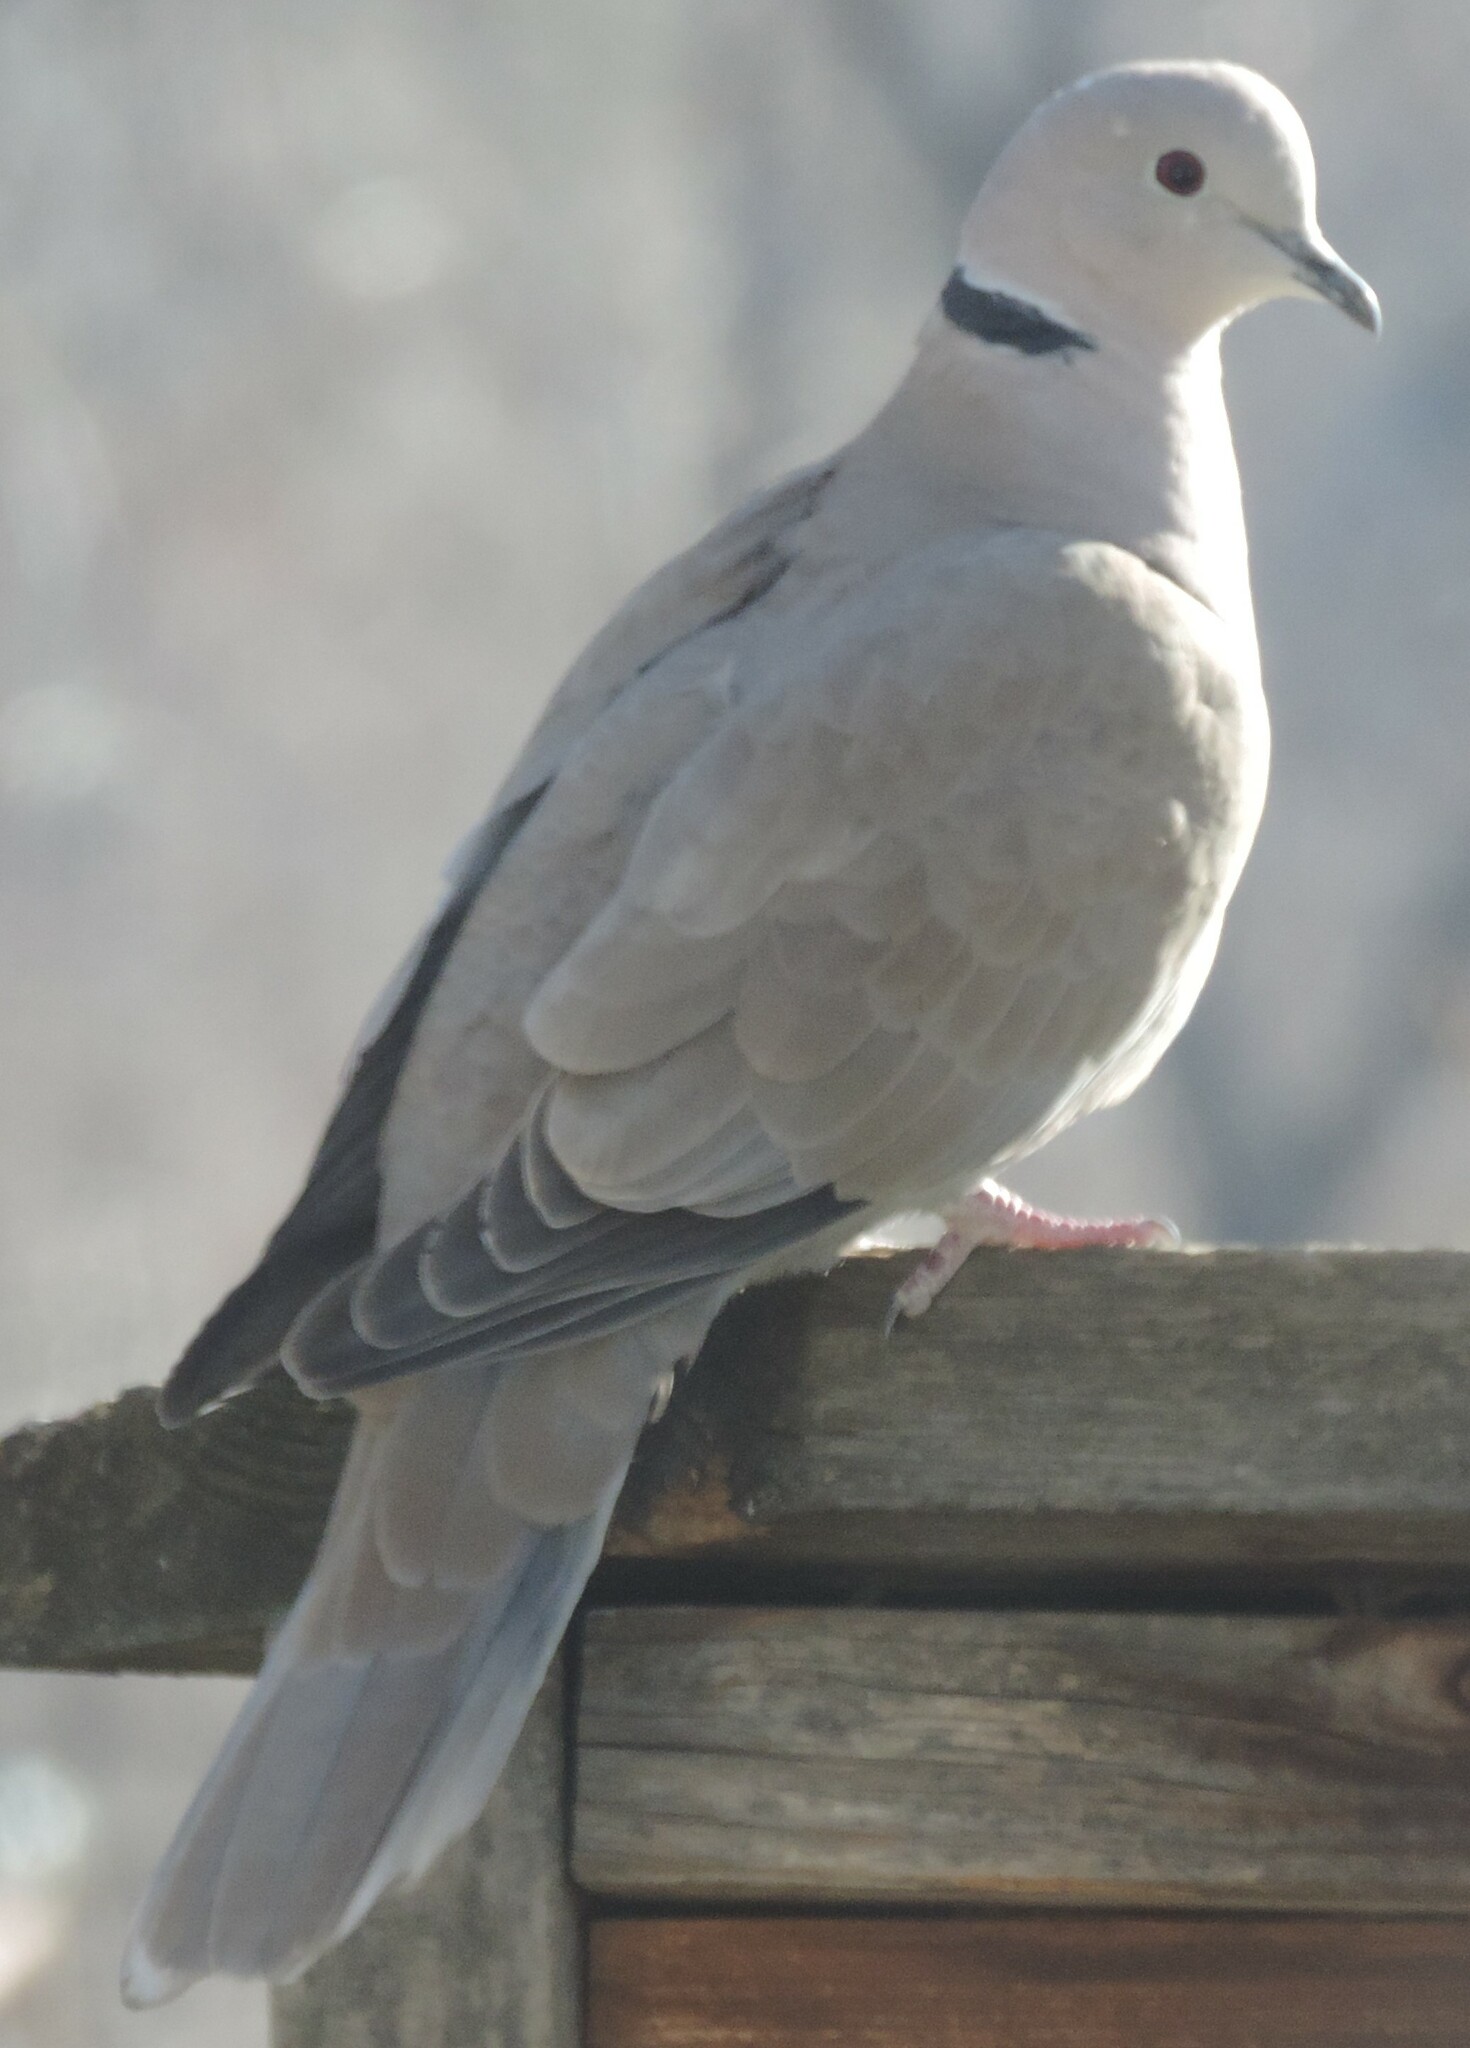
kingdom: Animalia
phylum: Chordata
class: Aves
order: Columbiformes
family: Columbidae
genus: Streptopelia
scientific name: Streptopelia decaocto
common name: Eurasian collared dove
